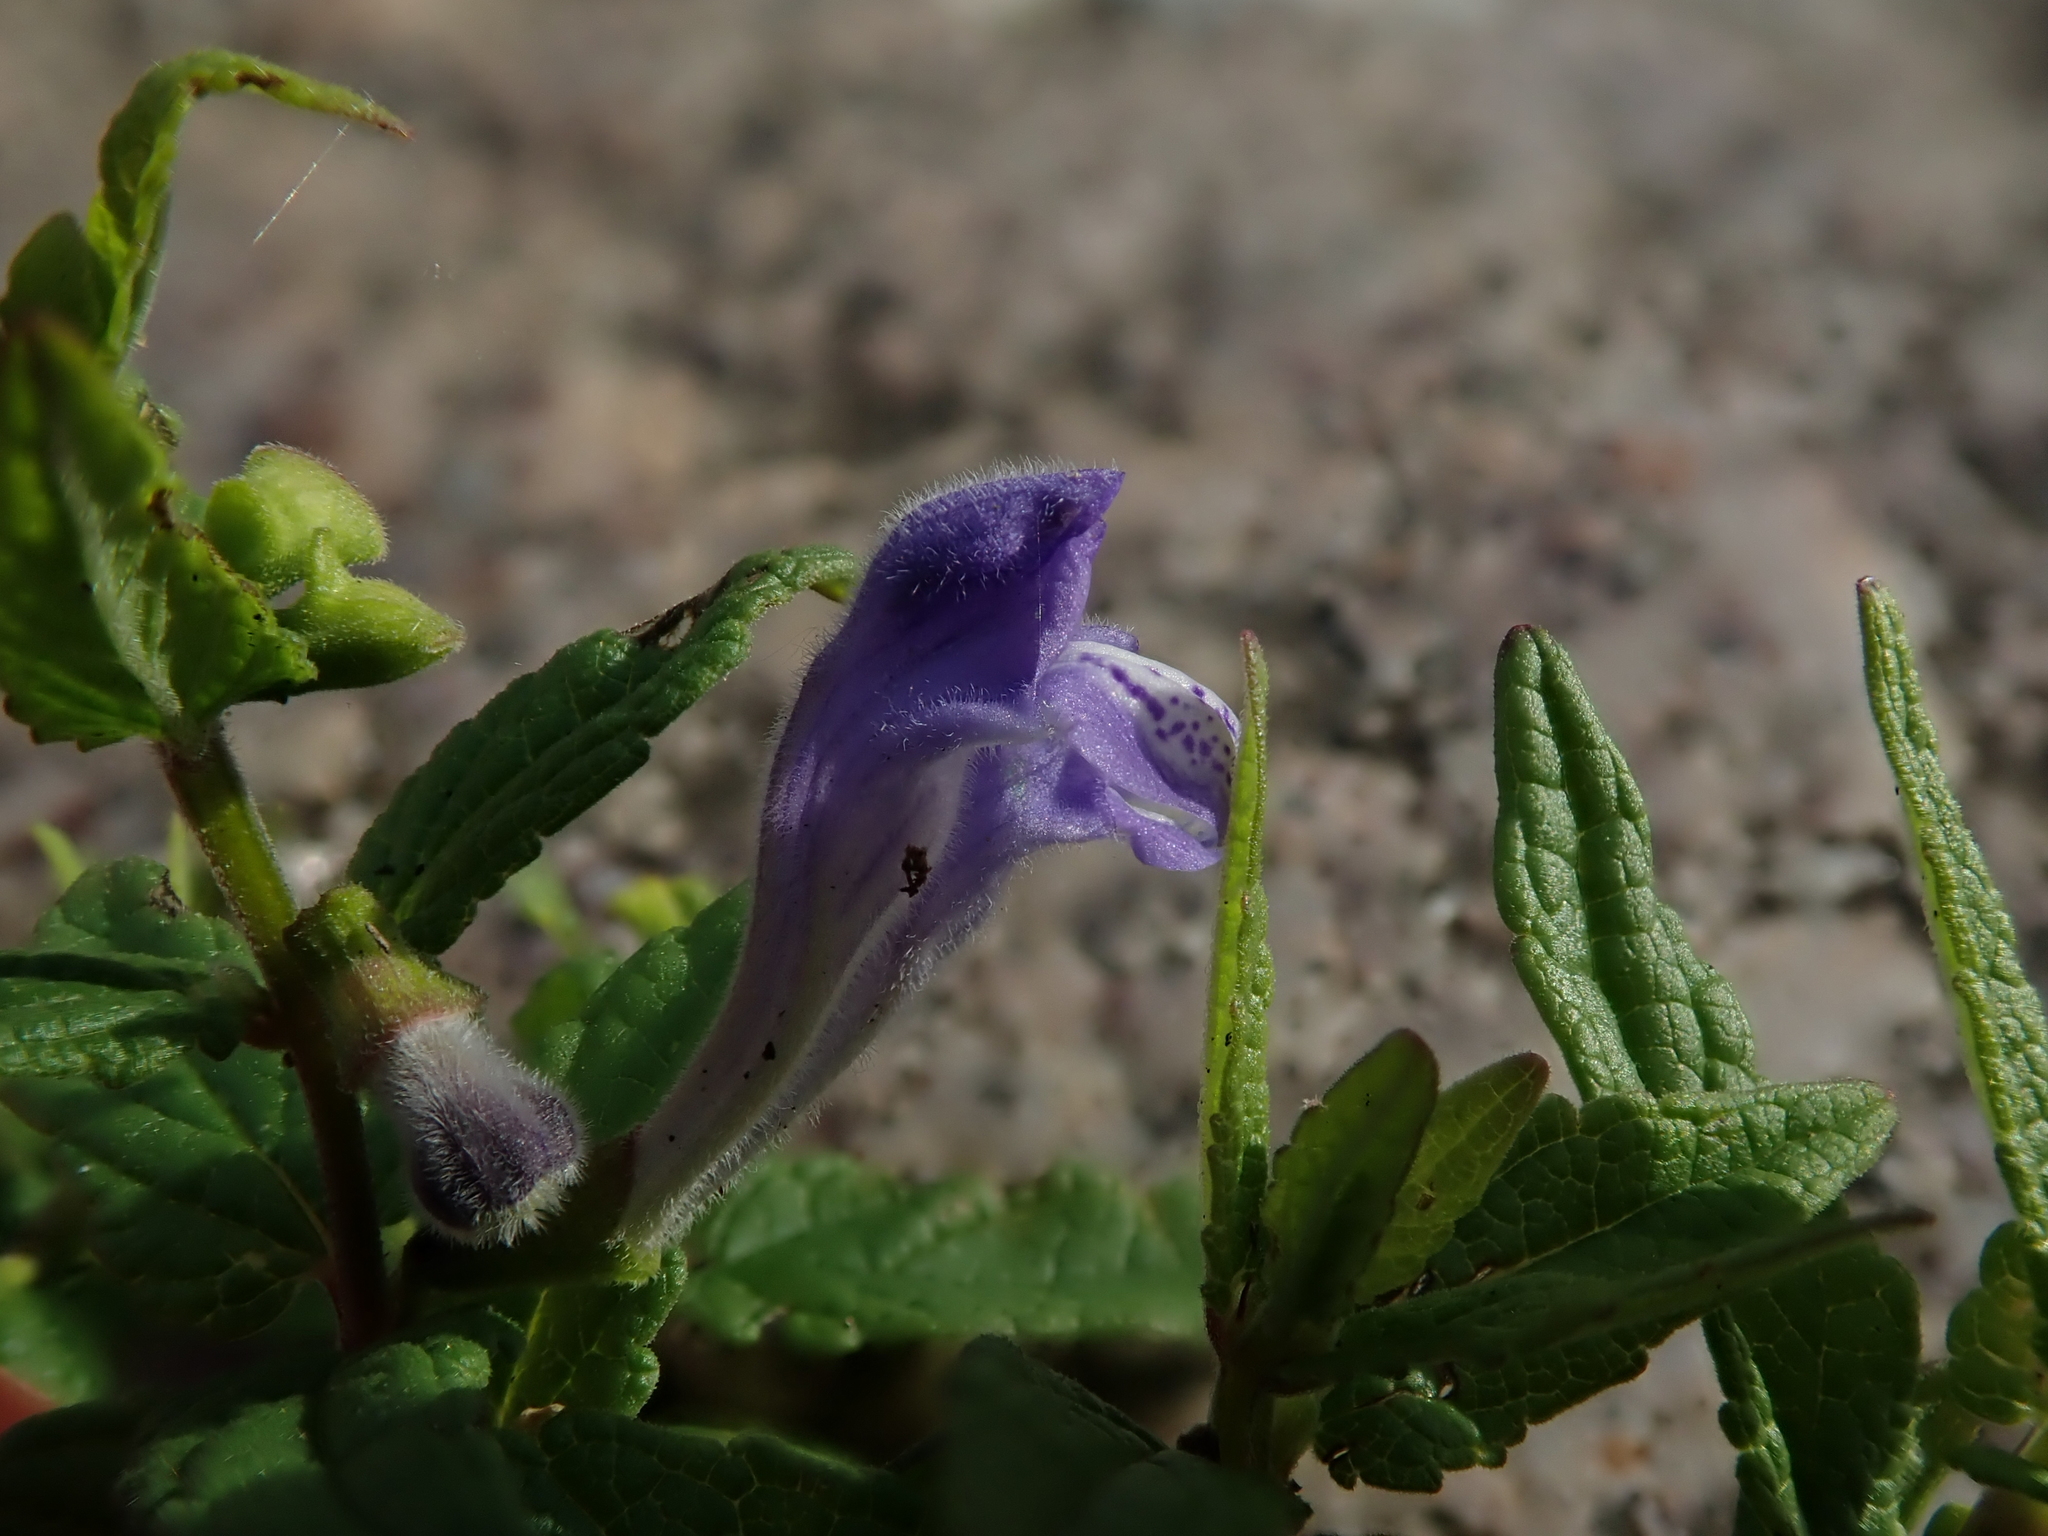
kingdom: Plantae
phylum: Tracheophyta
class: Magnoliopsida
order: Lamiales
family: Lamiaceae
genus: Scutellaria
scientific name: Scutellaria galericulata
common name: Skullcap
